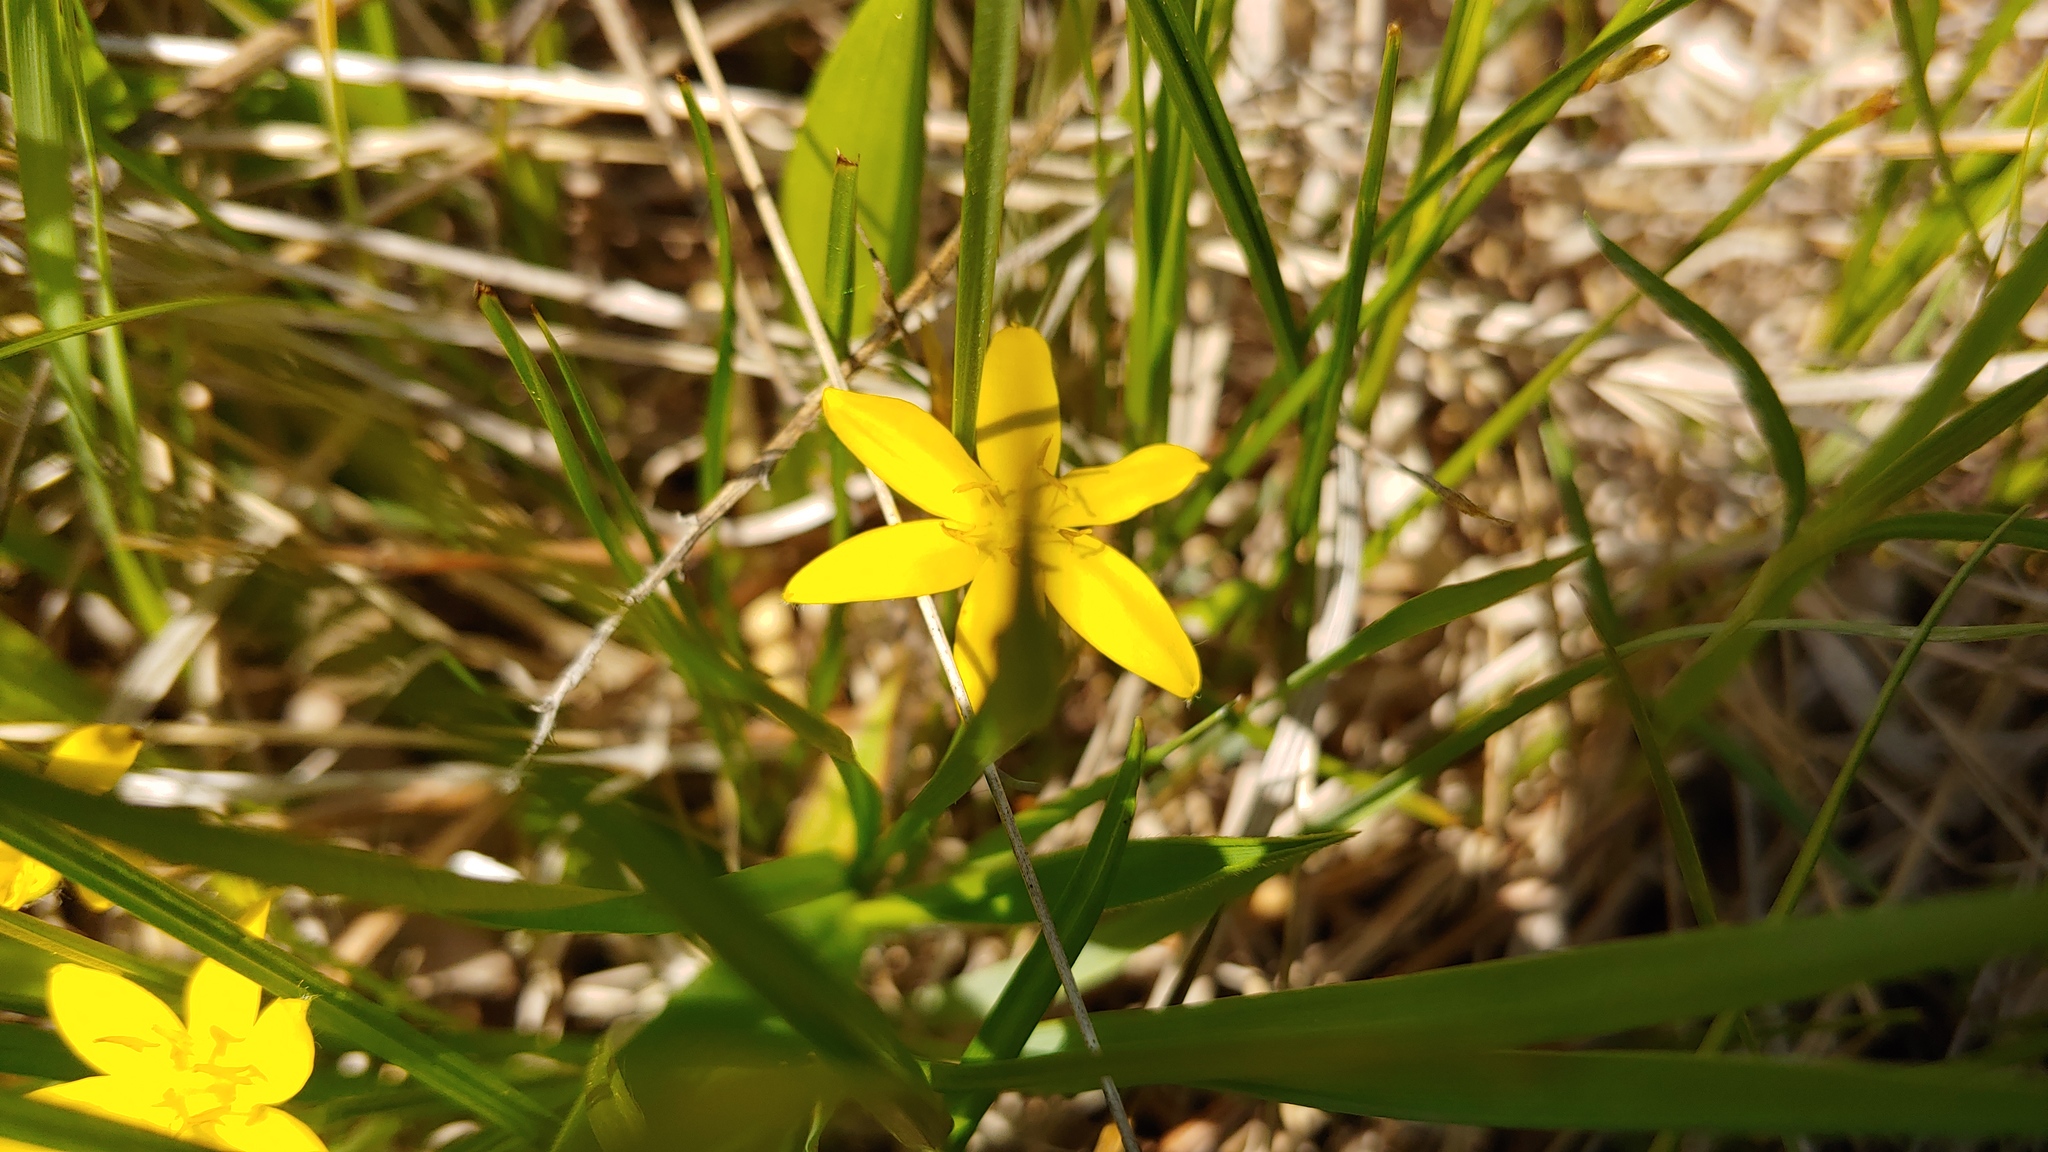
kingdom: Plantae
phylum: Tracheophyta
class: Liliopsida
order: Asparagales
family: Hypoxidaceae
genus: Hypoxis
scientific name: Hypoxis hirsuta
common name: Common goldstar
